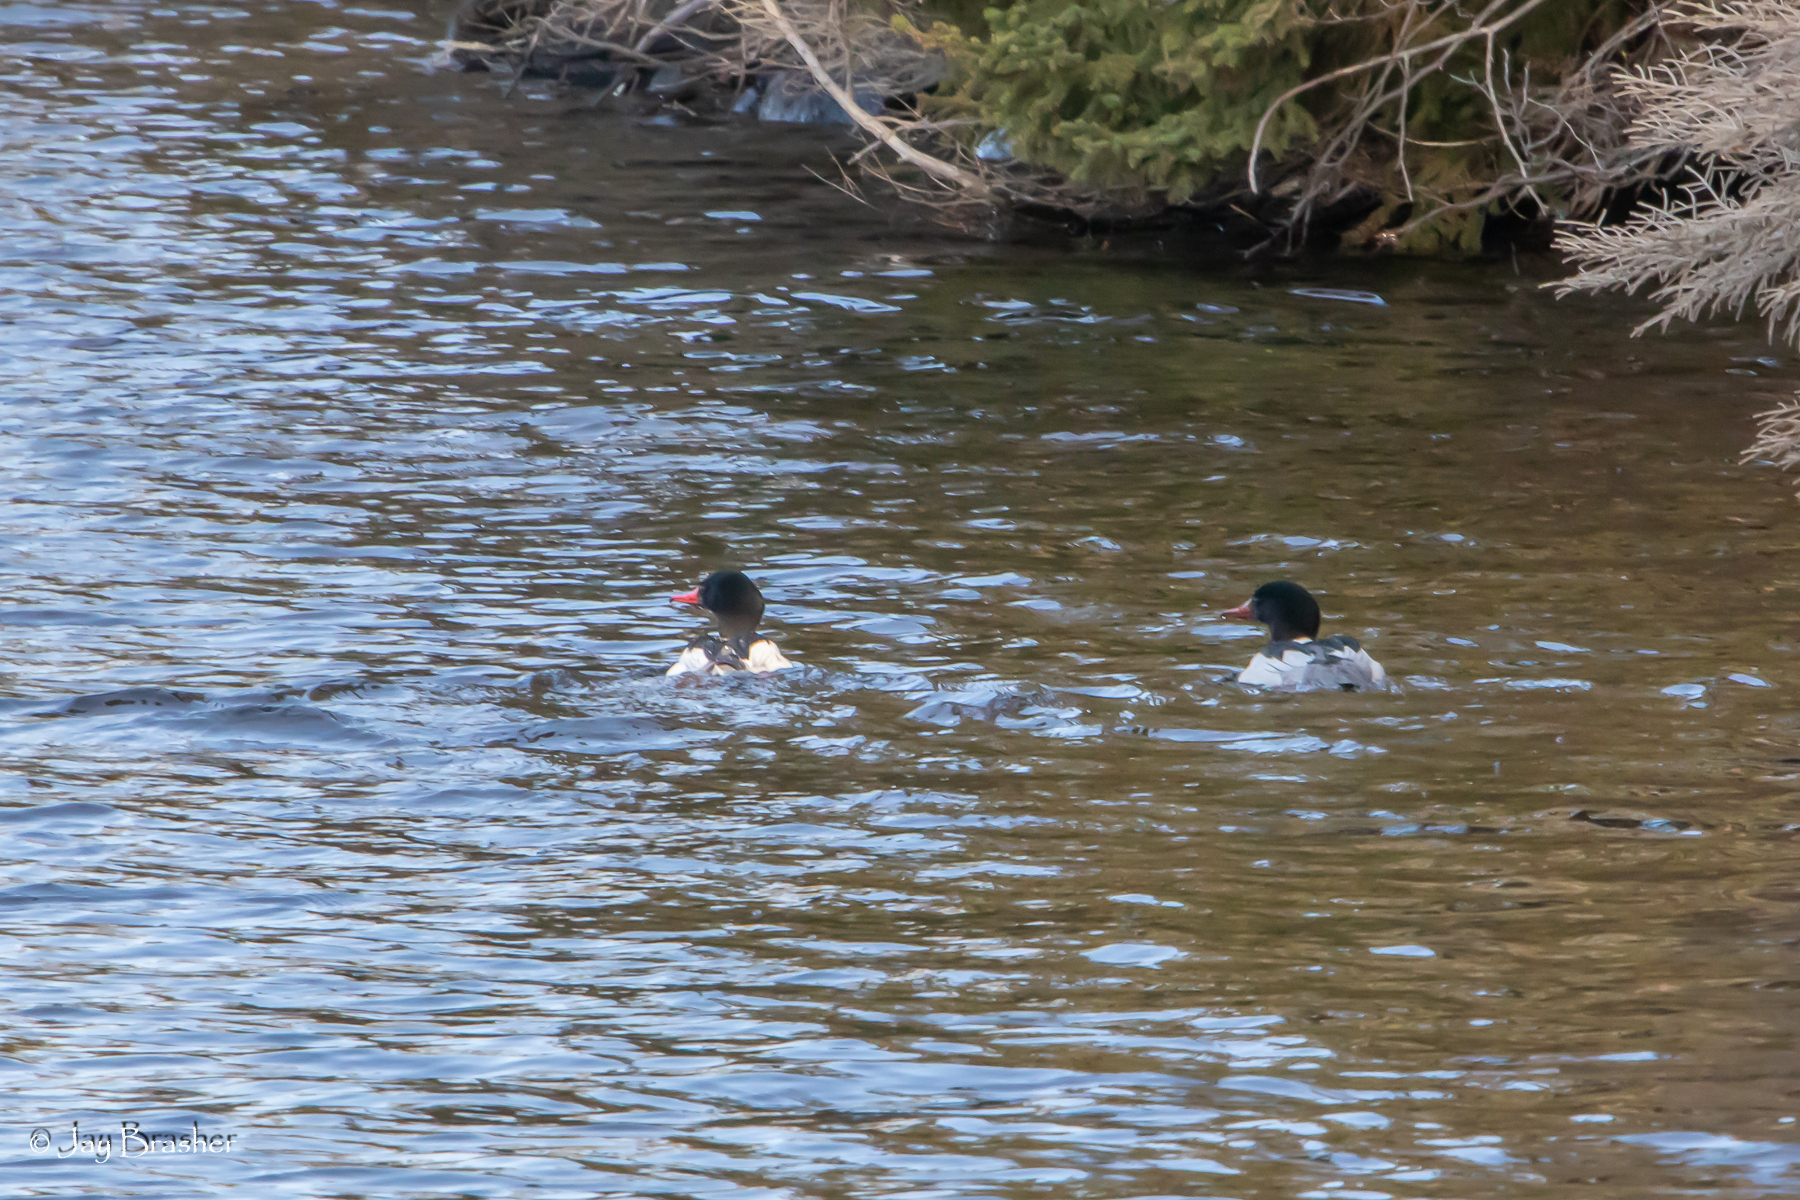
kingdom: Animalia
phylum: Chordata
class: Aves
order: Anseriformes
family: Anatidae
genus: Mergus
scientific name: Mergus merganser
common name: Common merganser
